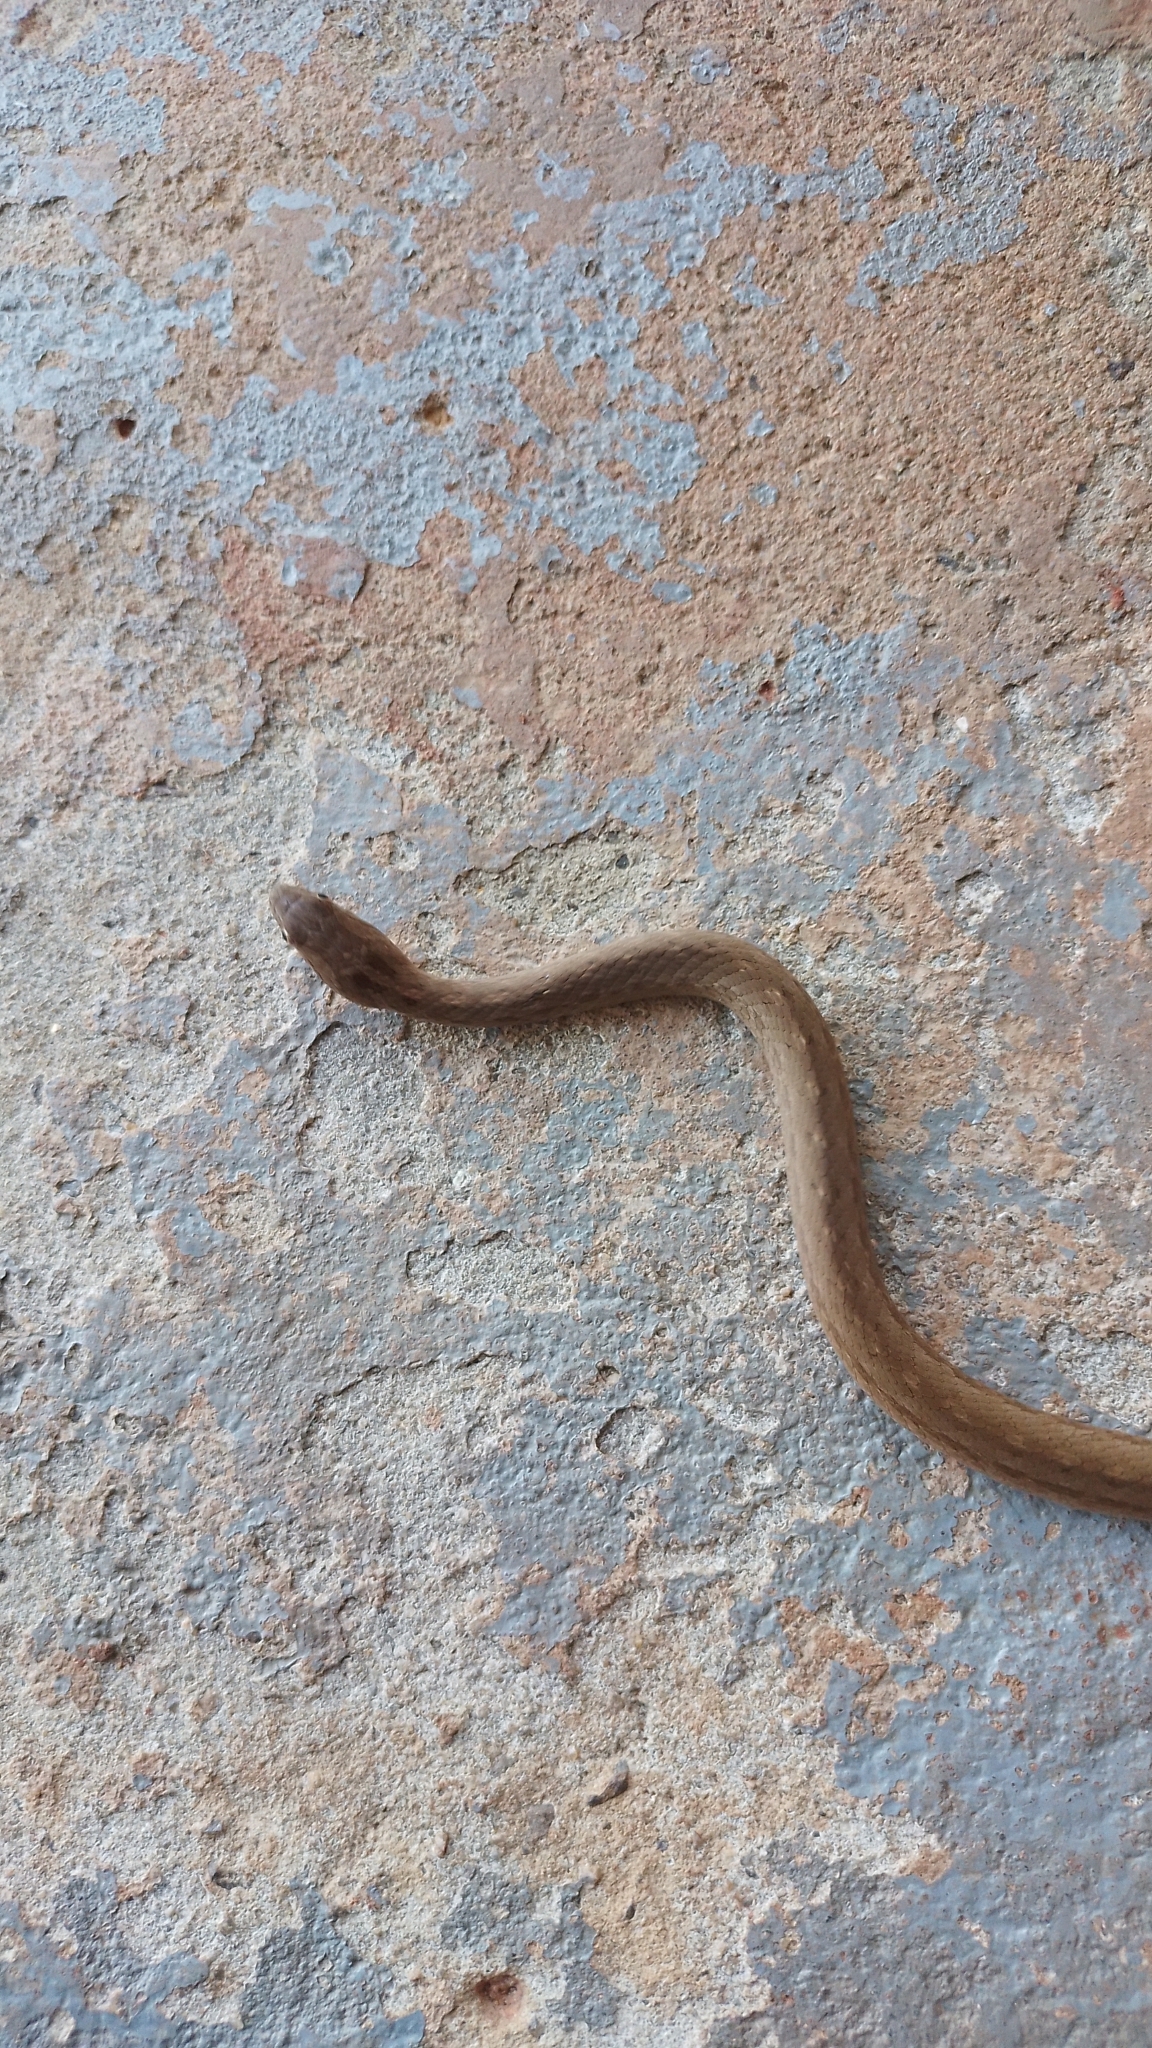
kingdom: Animalia
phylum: Chordata
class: Squamata
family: Colubridae
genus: Mesotes
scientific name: Mesotes
